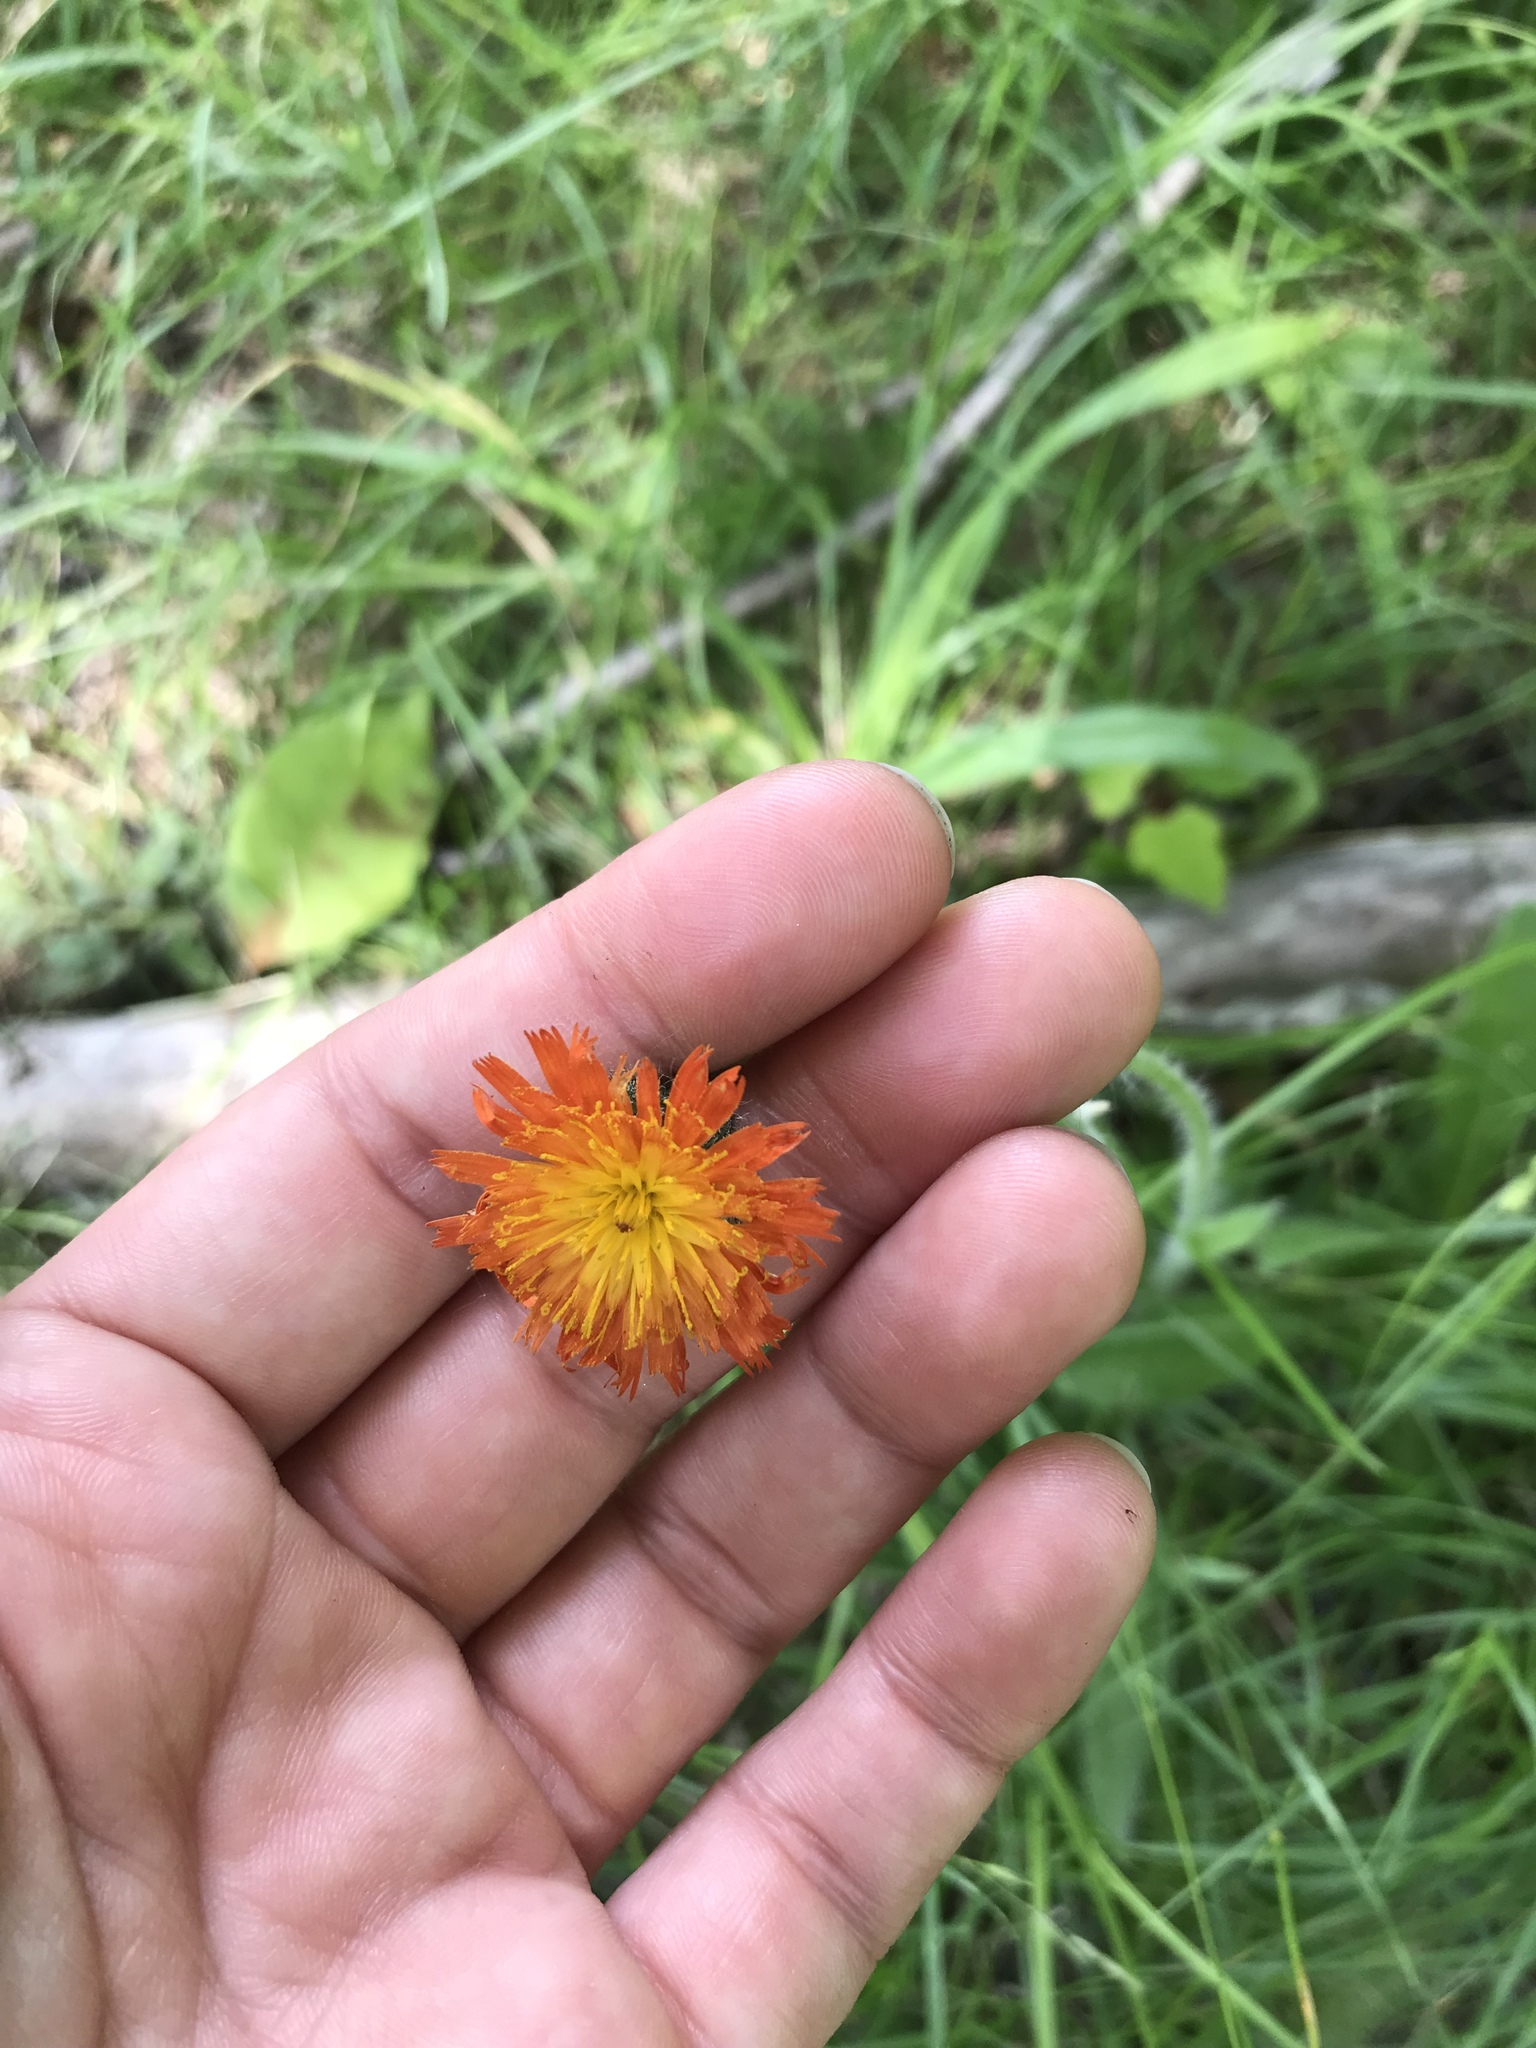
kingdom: Plantae
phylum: Tracheophyta
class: Magnoliopsida
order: Asterales
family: Asteraceae
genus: Pilosella
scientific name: Pilosella aurantiaca
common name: Fox-and-cubs
